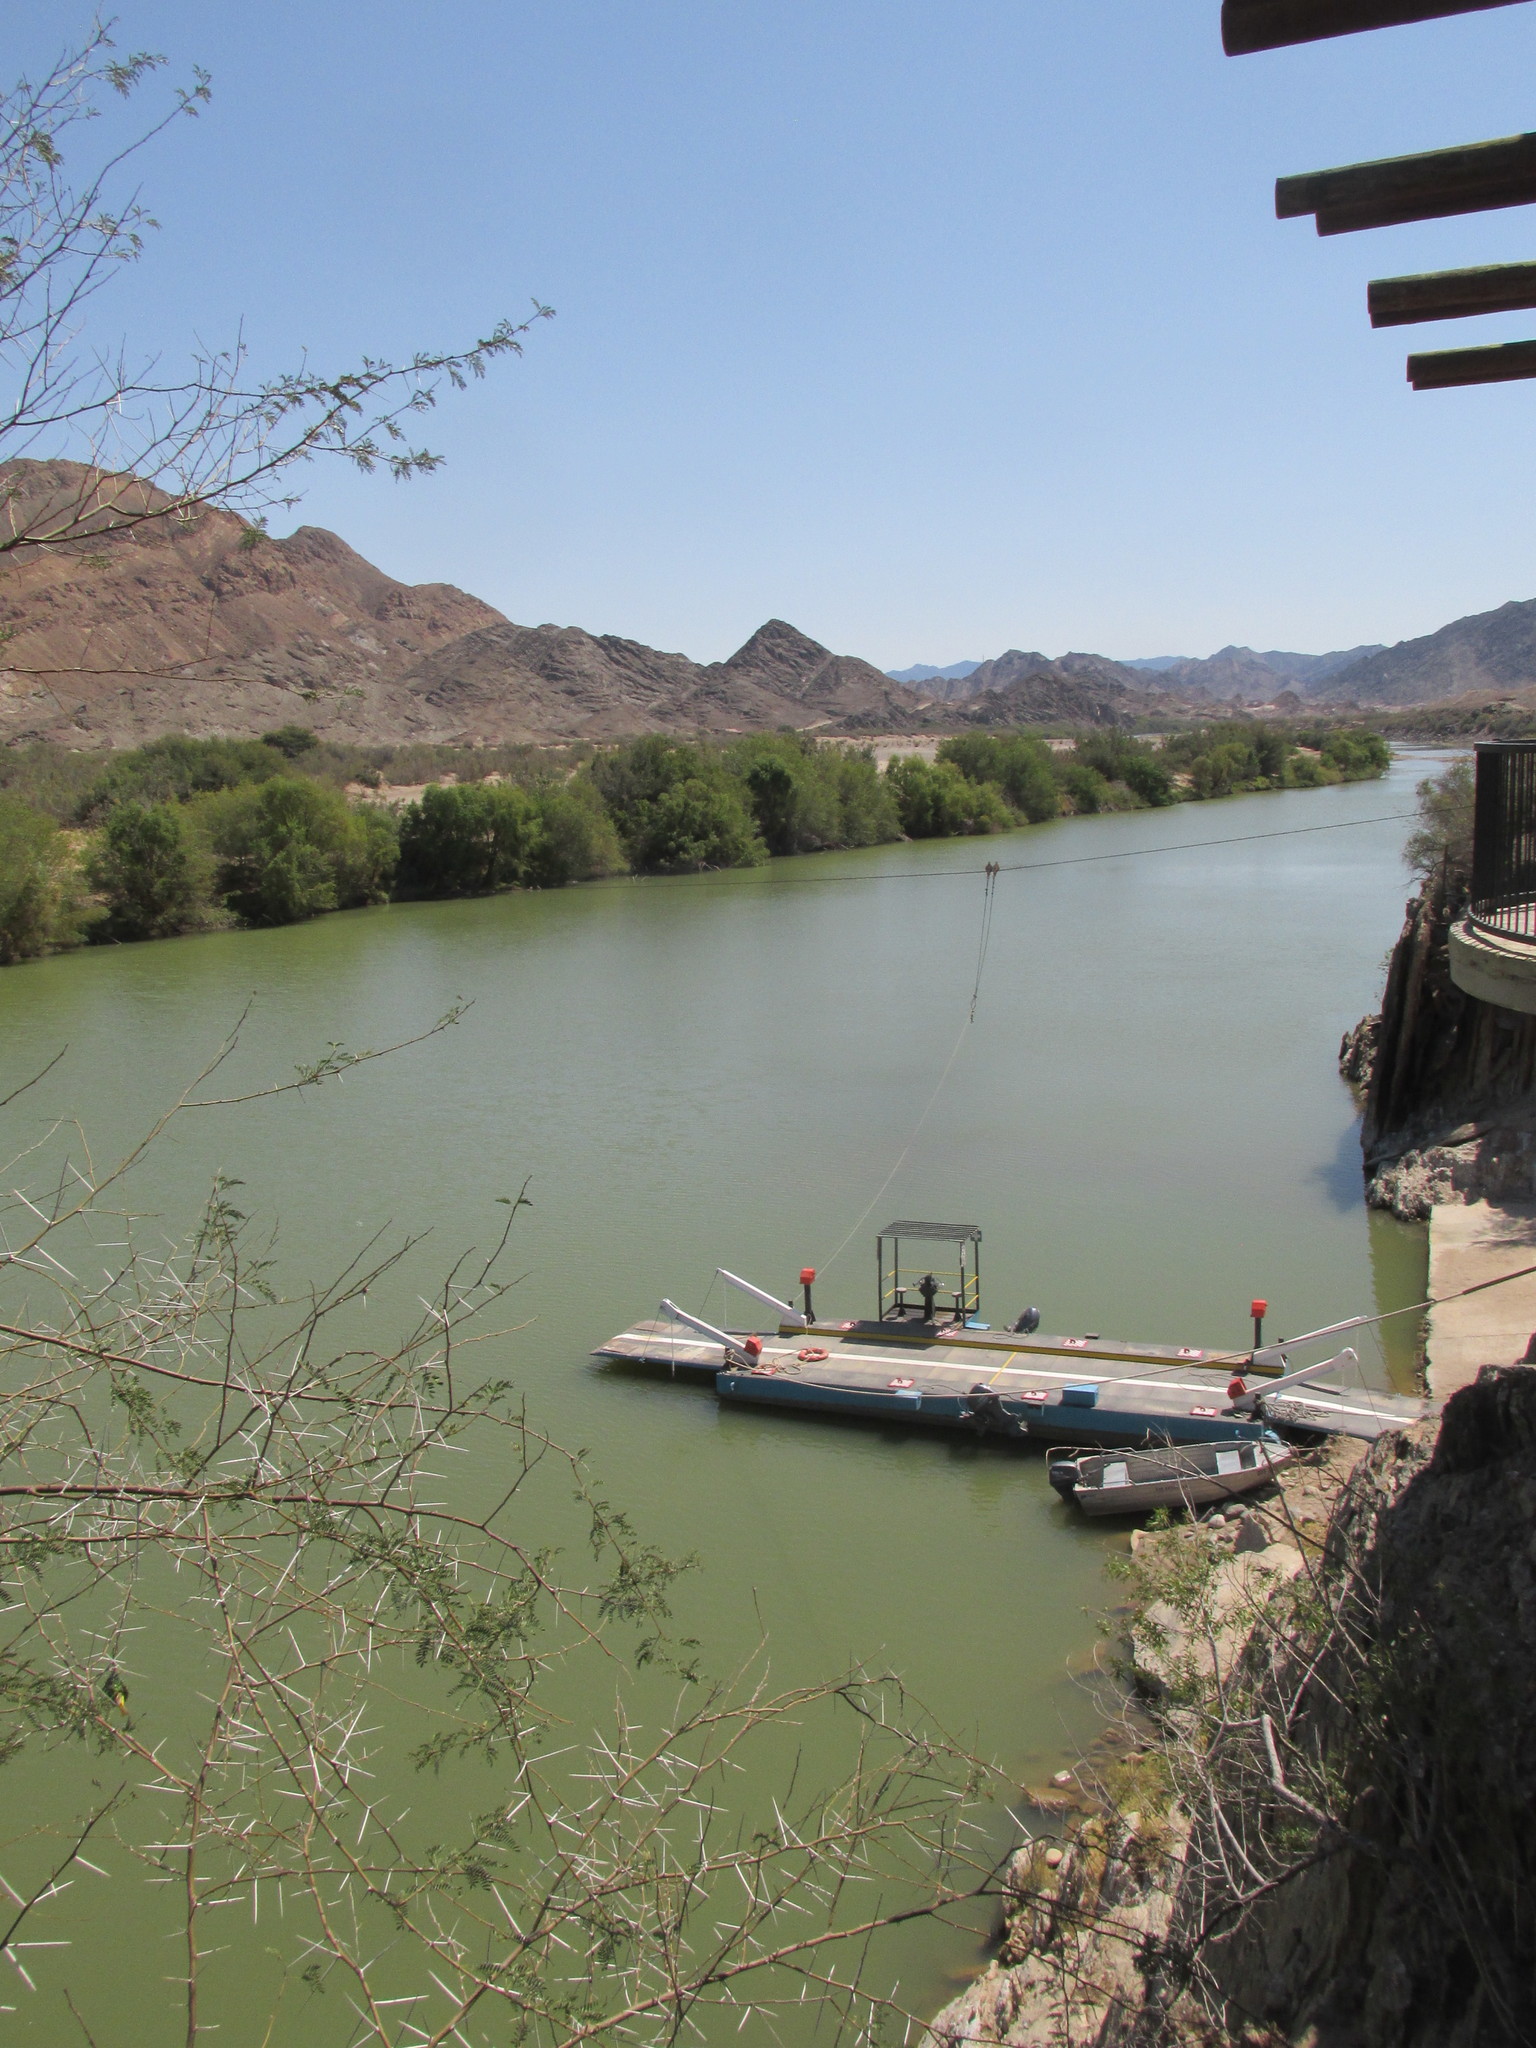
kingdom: Animalia
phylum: Chordata
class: Aves
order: Passeriformes
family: Ploceidae
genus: Ploceus
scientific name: Ploceus velatus
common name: Southern masked weaver
